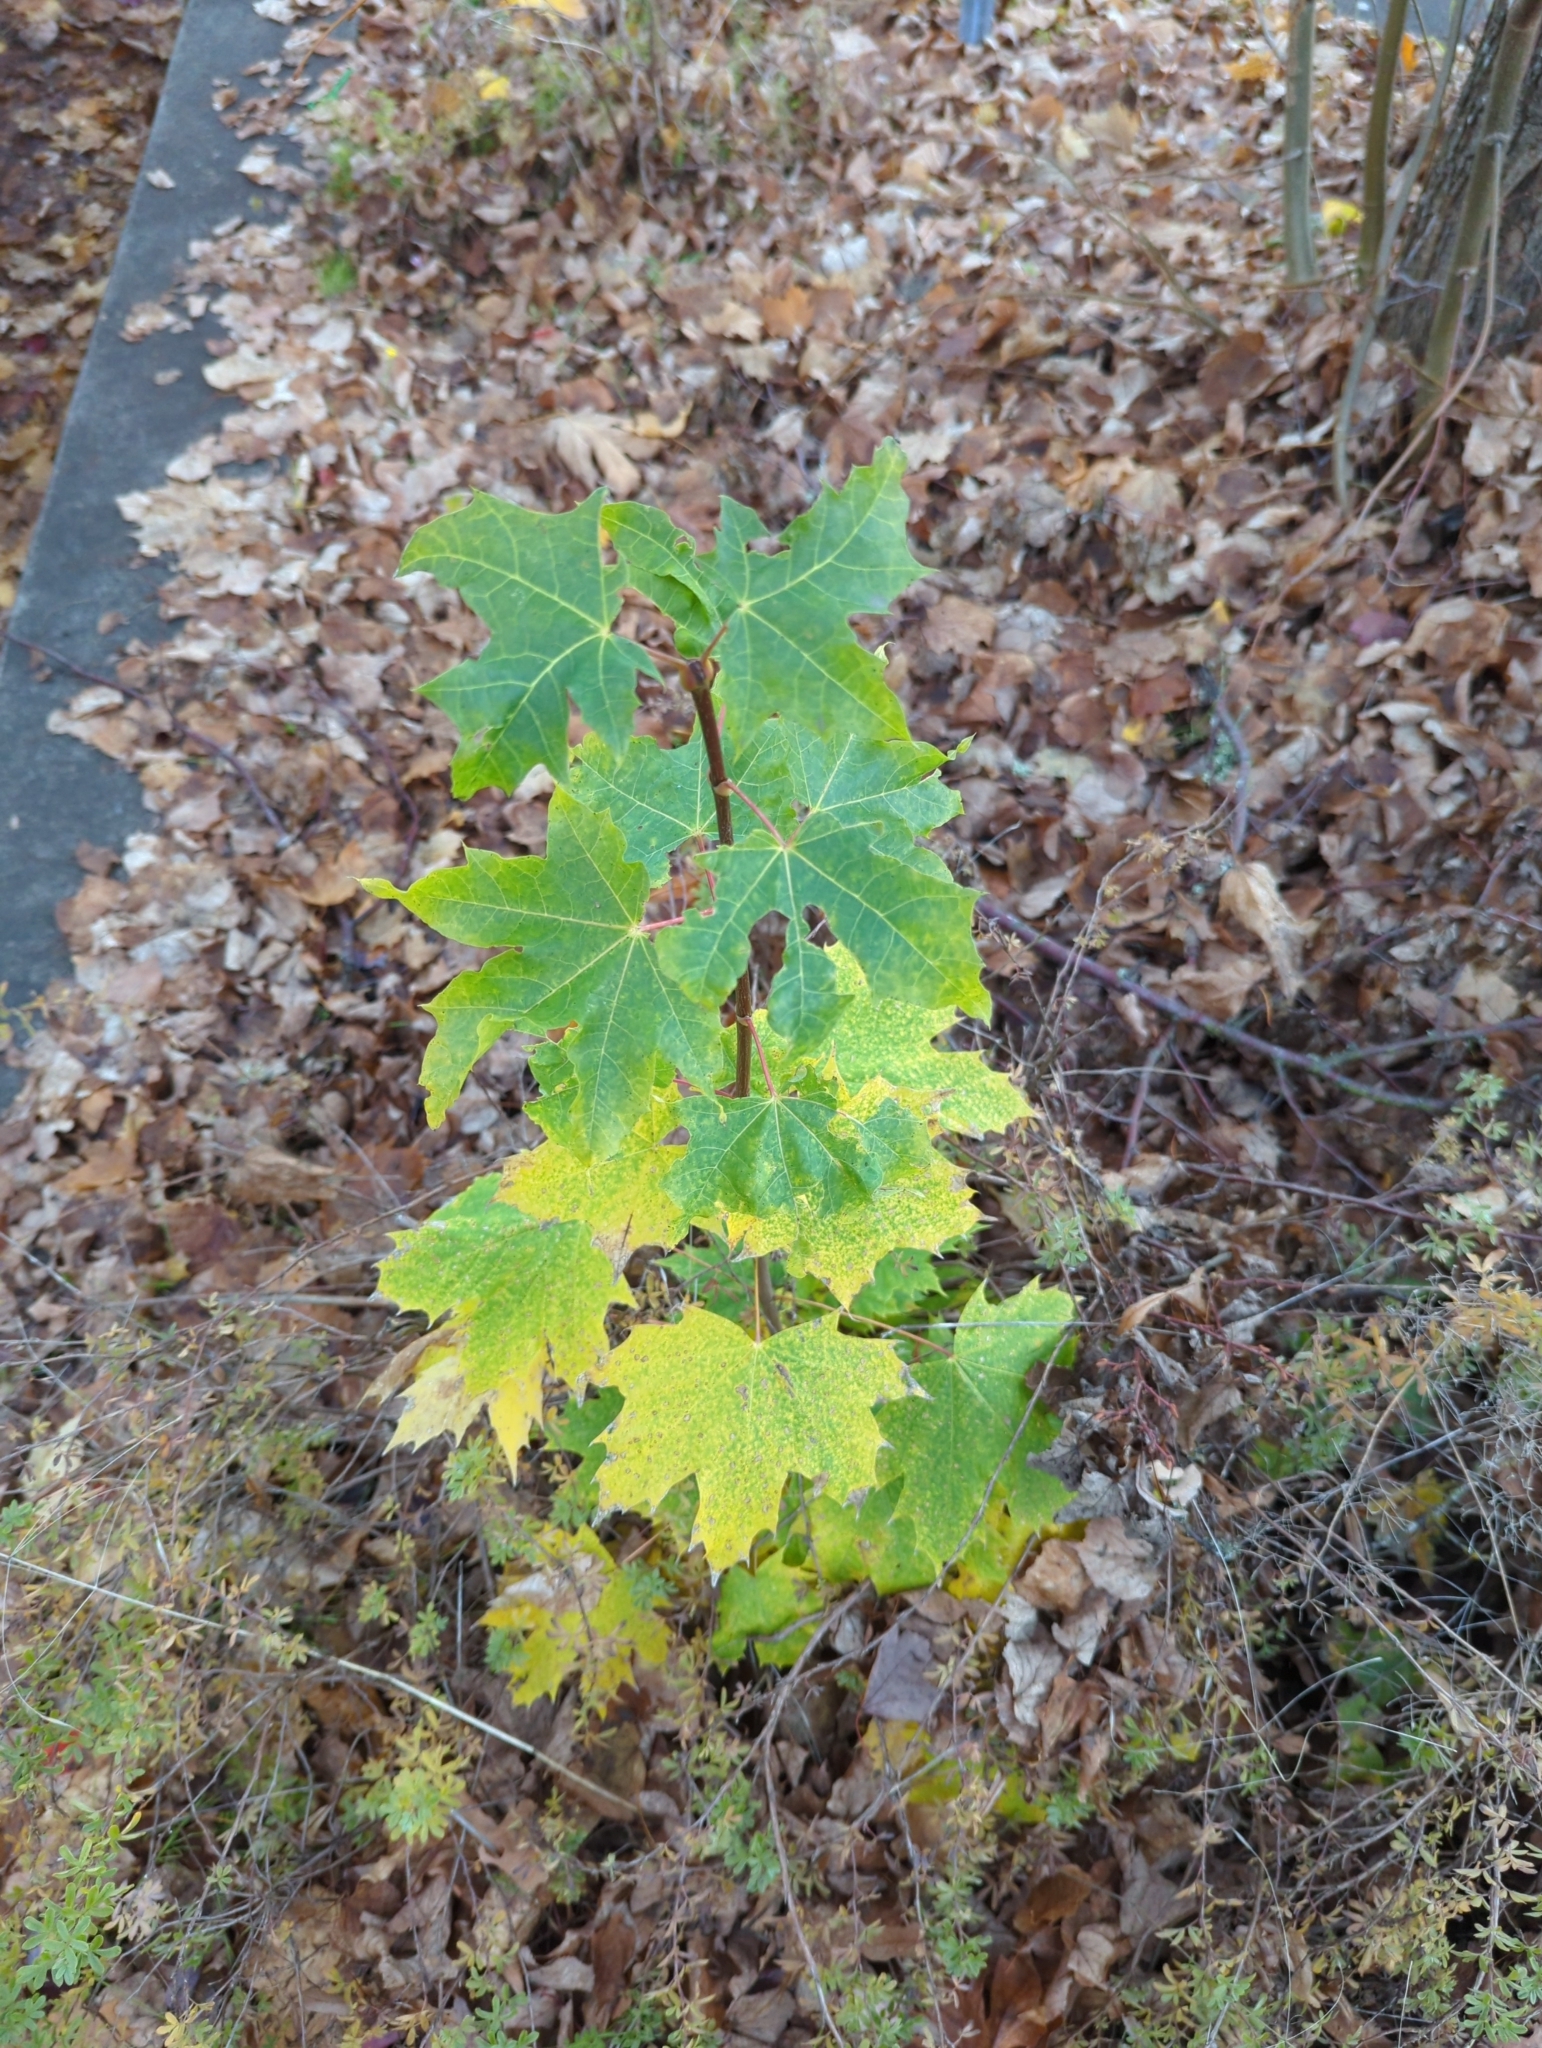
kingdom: Plantae
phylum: Tracheophyta
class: Magnoliopsida
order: Sapindales
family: Sapindaceae
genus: Acer
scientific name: Acer platanoides
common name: Norway maple
